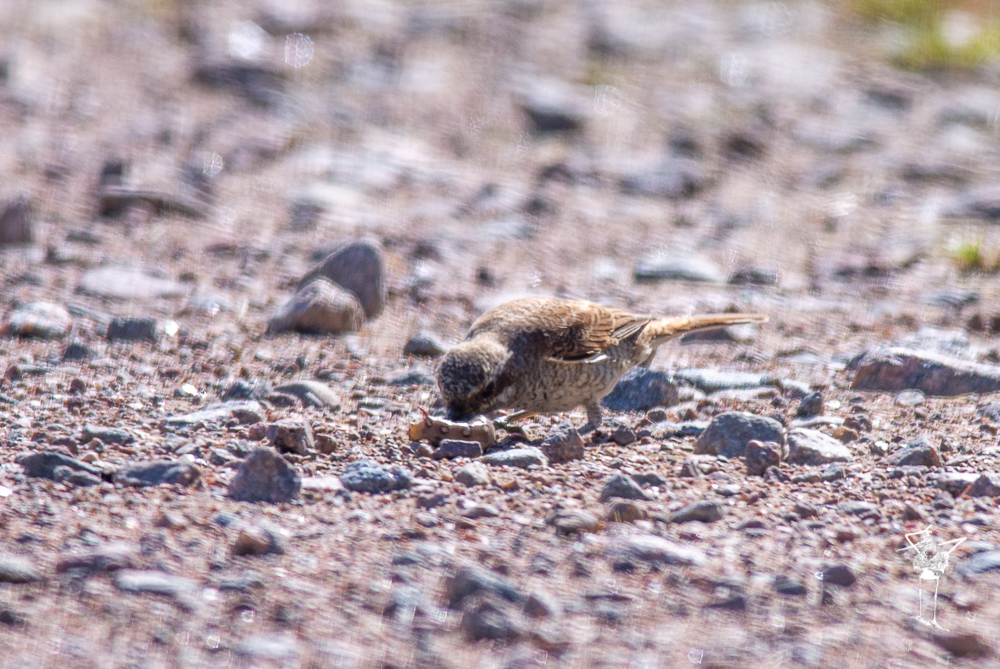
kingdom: Animalia
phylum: Chordata
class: Aves
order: Passeriformes
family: Laniidae
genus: Lanius
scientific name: Lanius collurio
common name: Red-backed shrike
